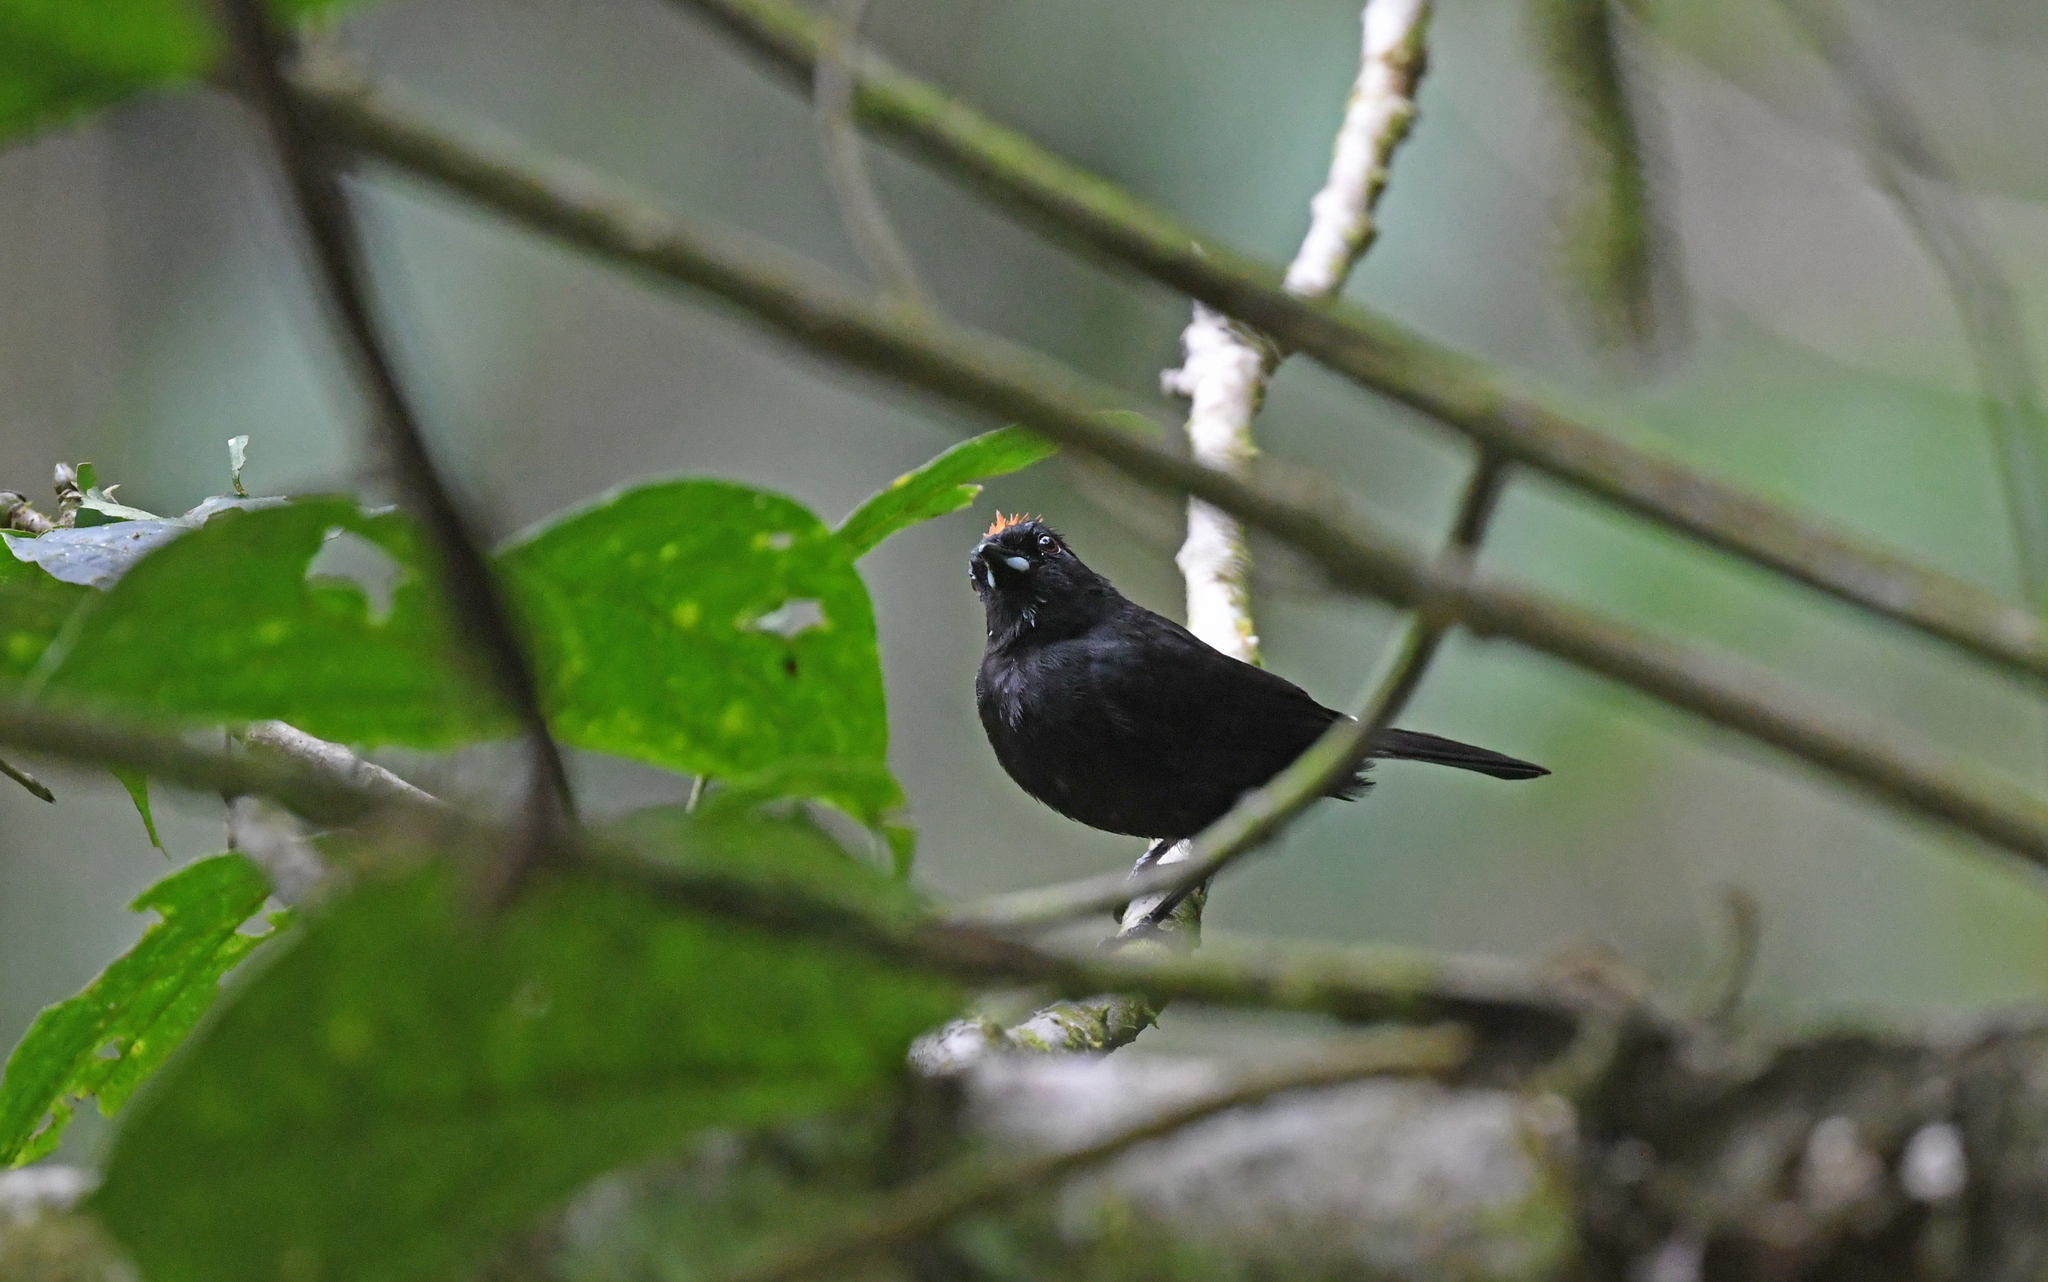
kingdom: Animalia
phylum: Chordata
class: Aves
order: Passeriformes
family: Thraupidae
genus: Tachyphonus
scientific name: Tachyphonus delatrii
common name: Tawny-crested tanager
